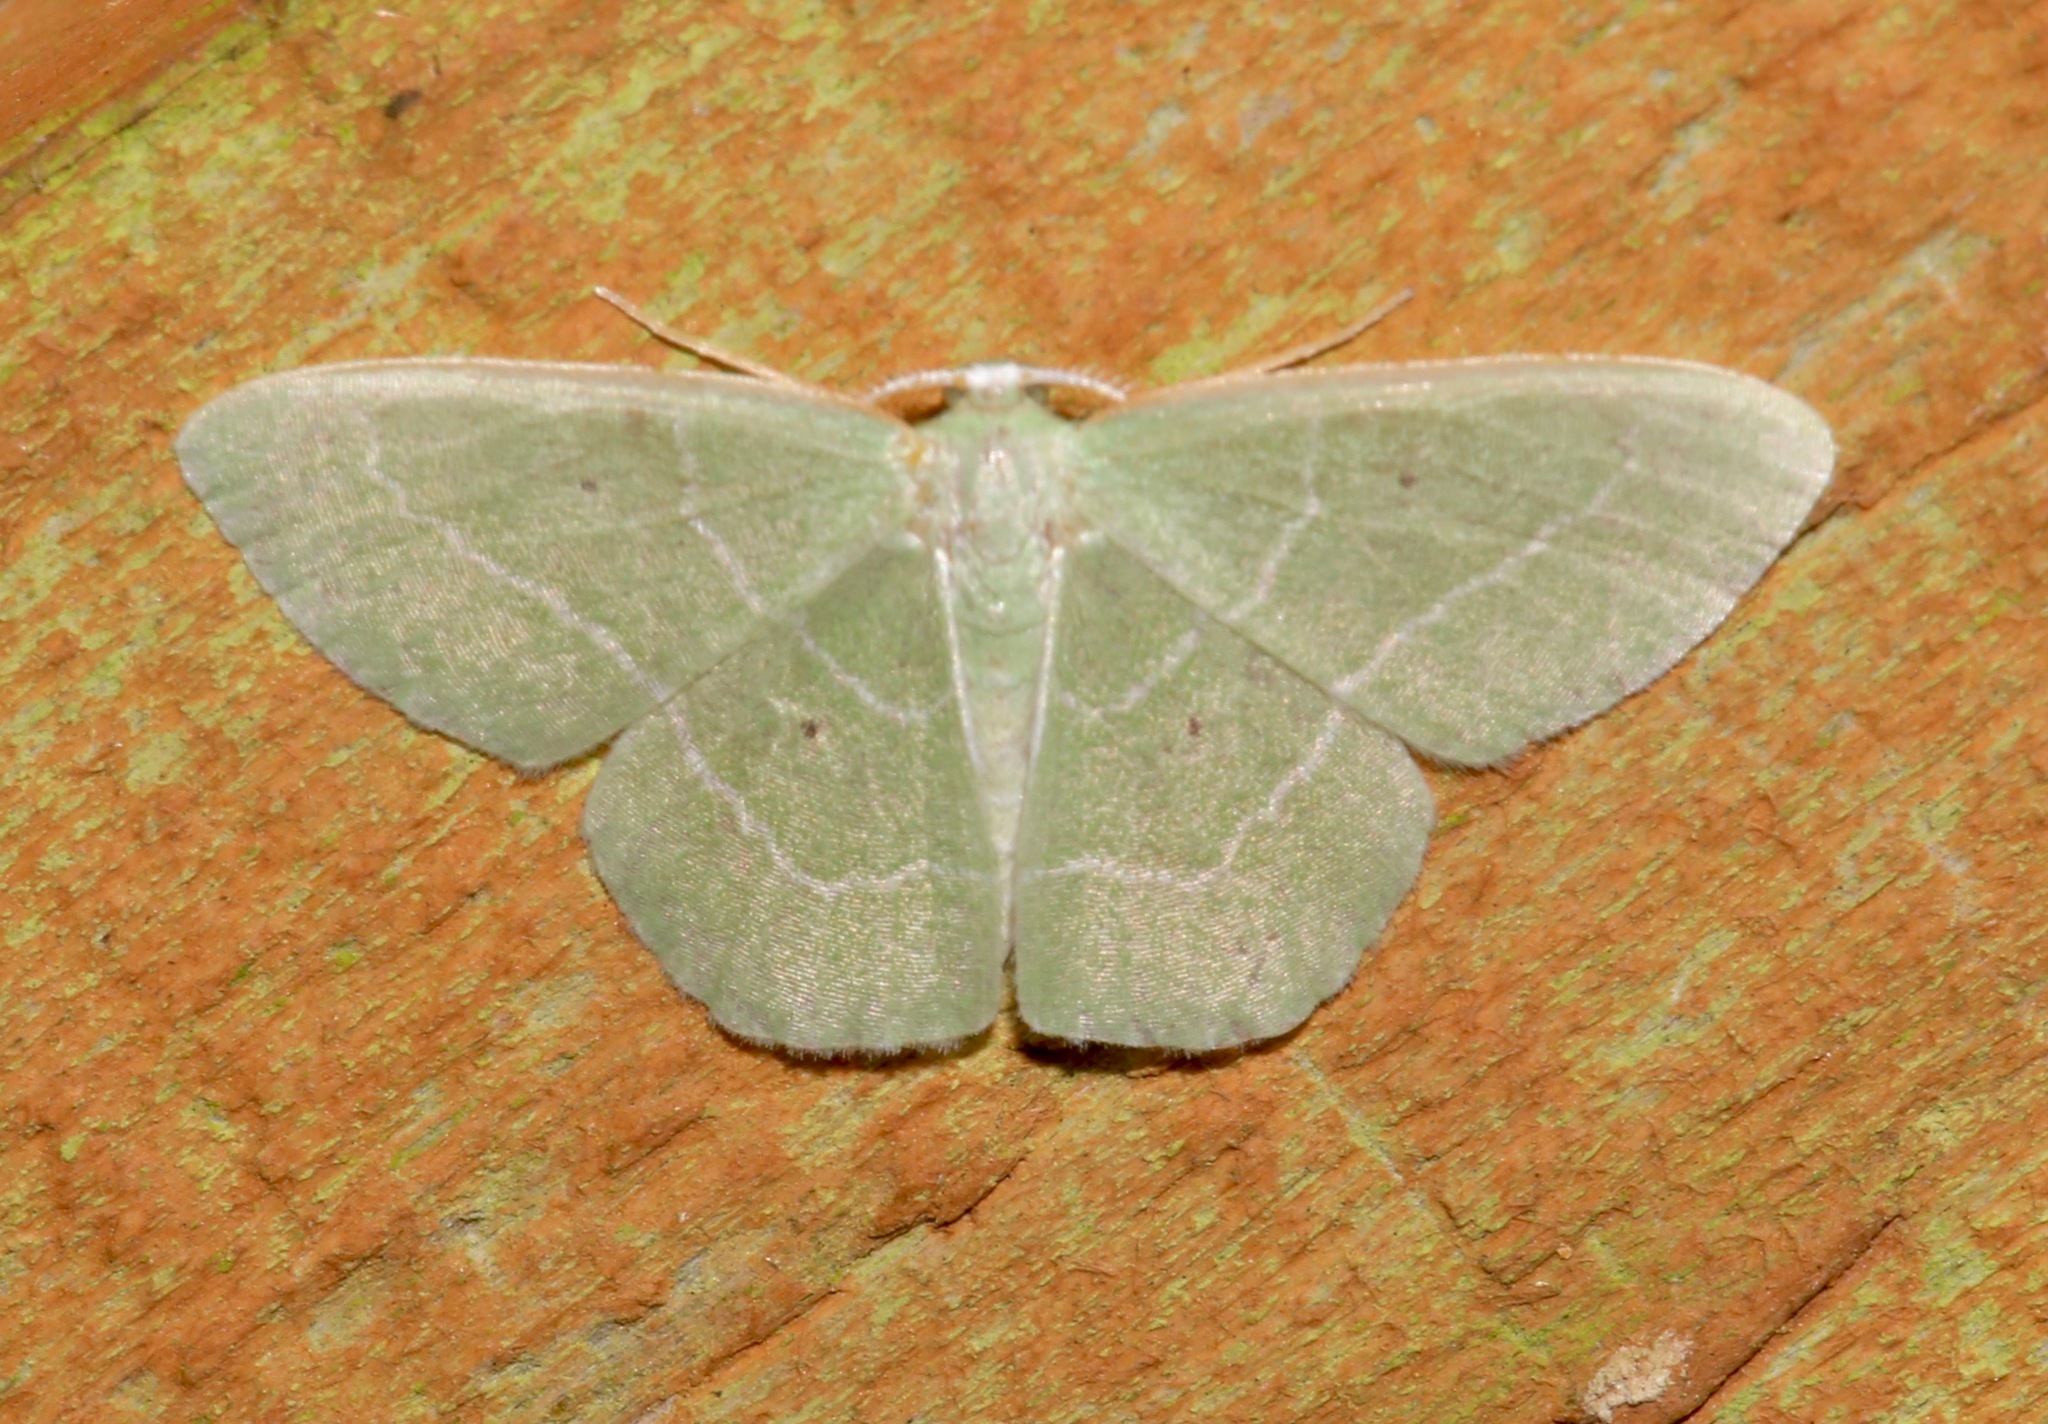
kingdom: Animalia
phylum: Arthropoda
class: Insecta
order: Lepidoptera
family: Geometridae
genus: Nemoria
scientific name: Nemoria elfa
